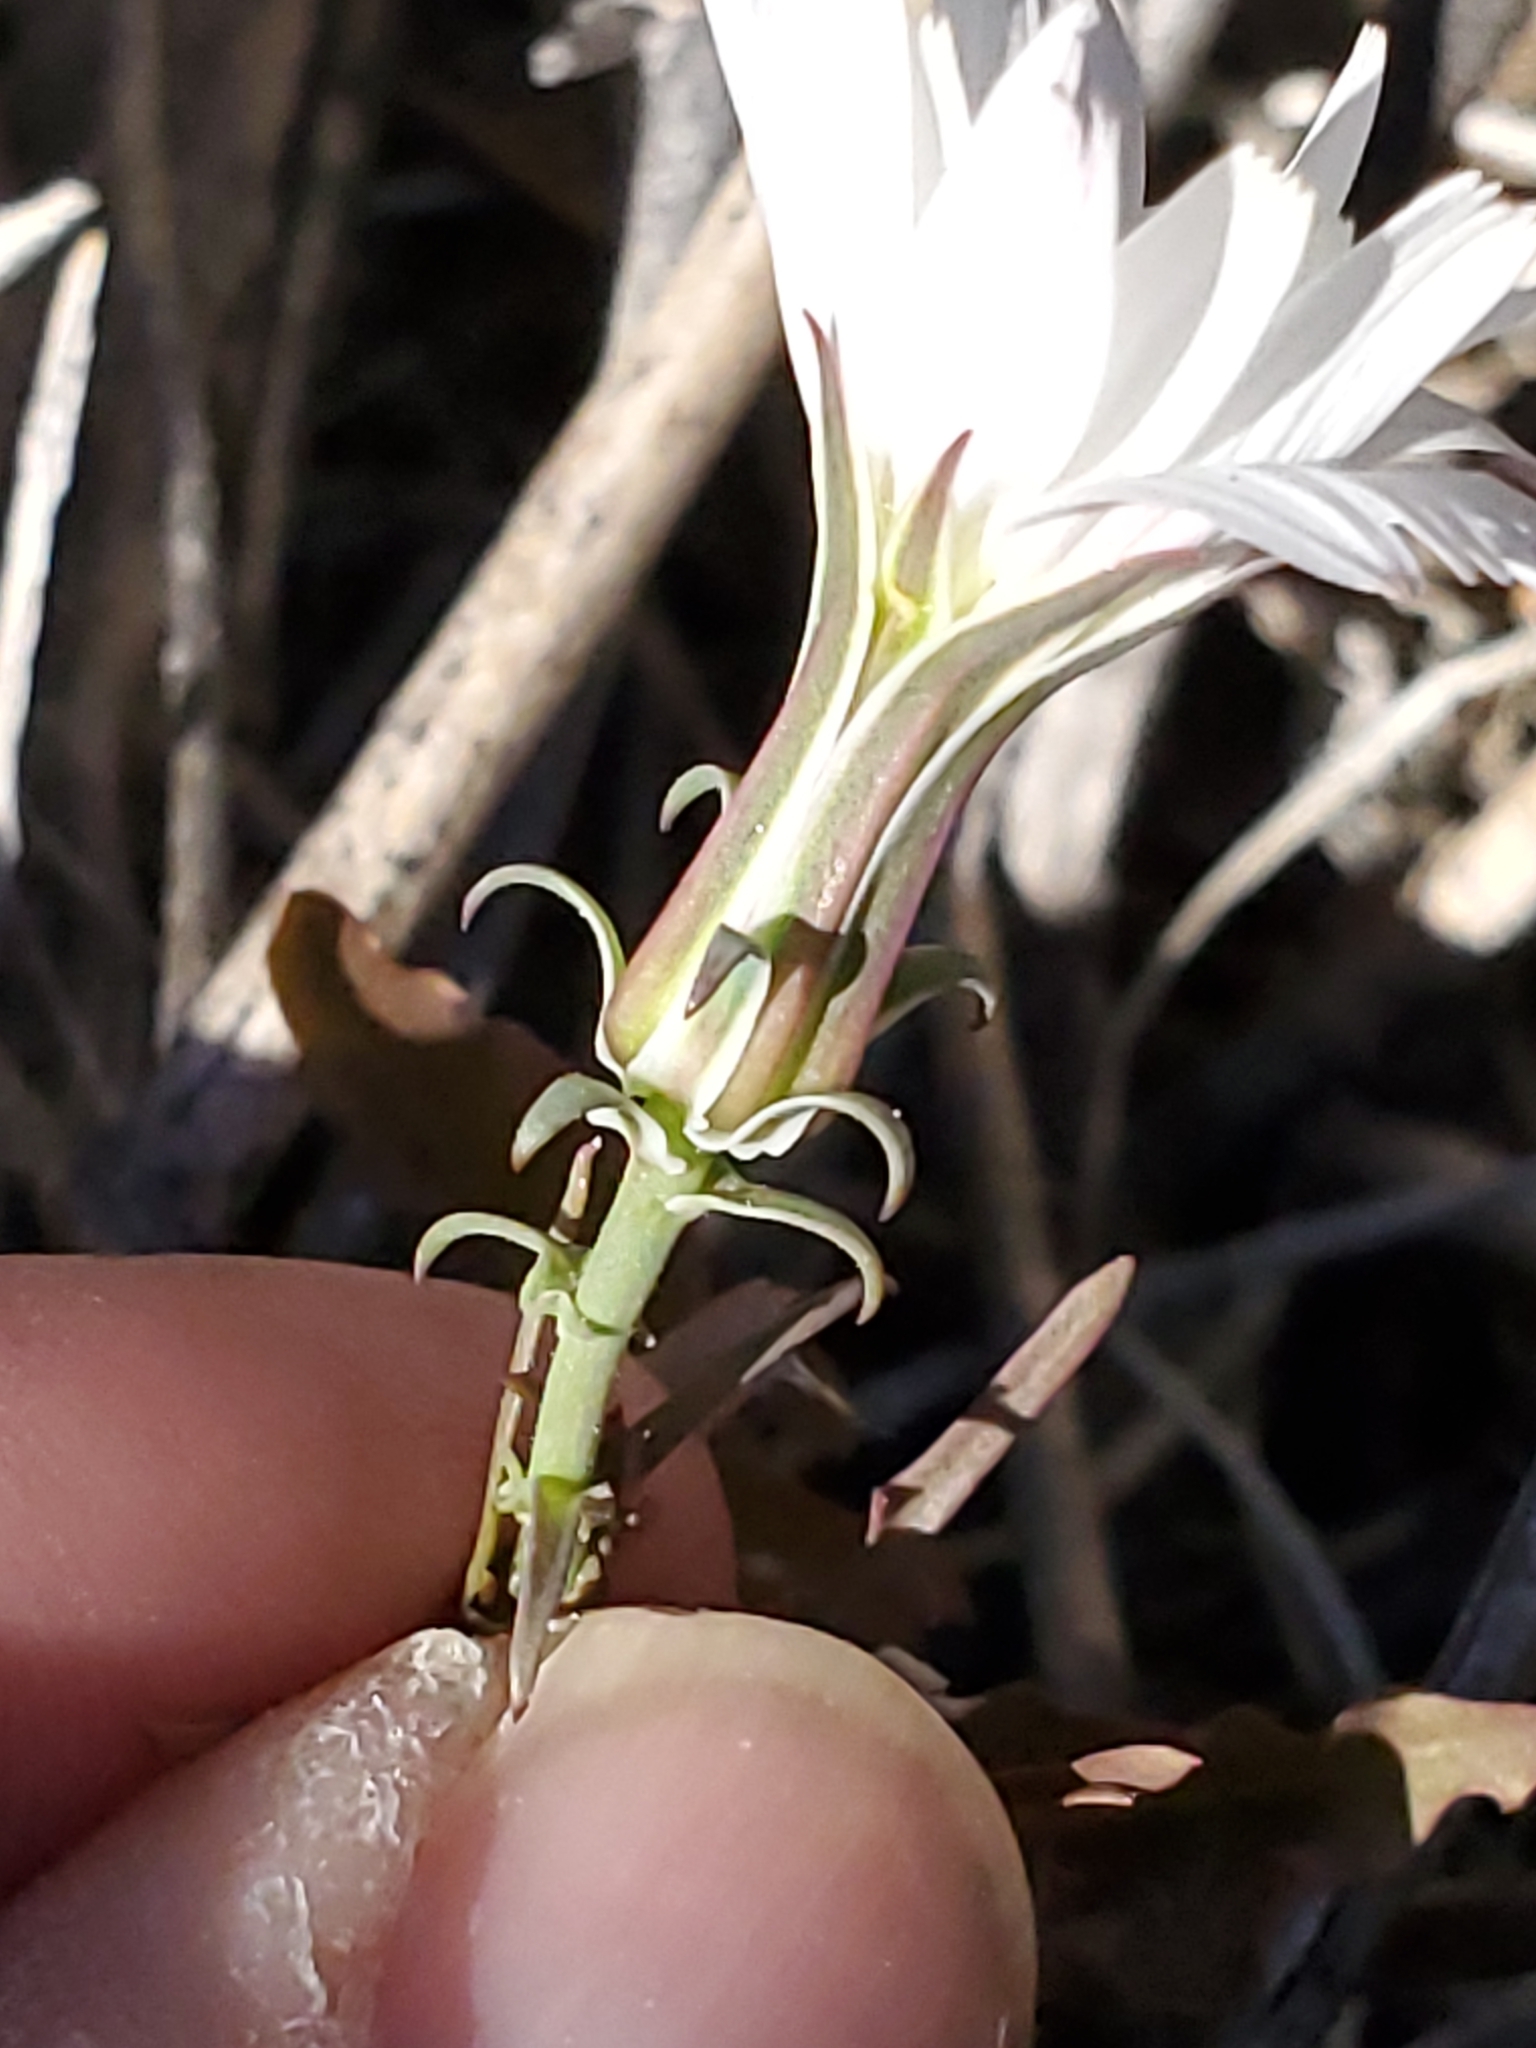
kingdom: Plantae
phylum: Tracheophyta
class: Magnoliopsida
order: Asterales
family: Asteraceae
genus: Rafinesquia
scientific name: Rafinesquia neomexicana
